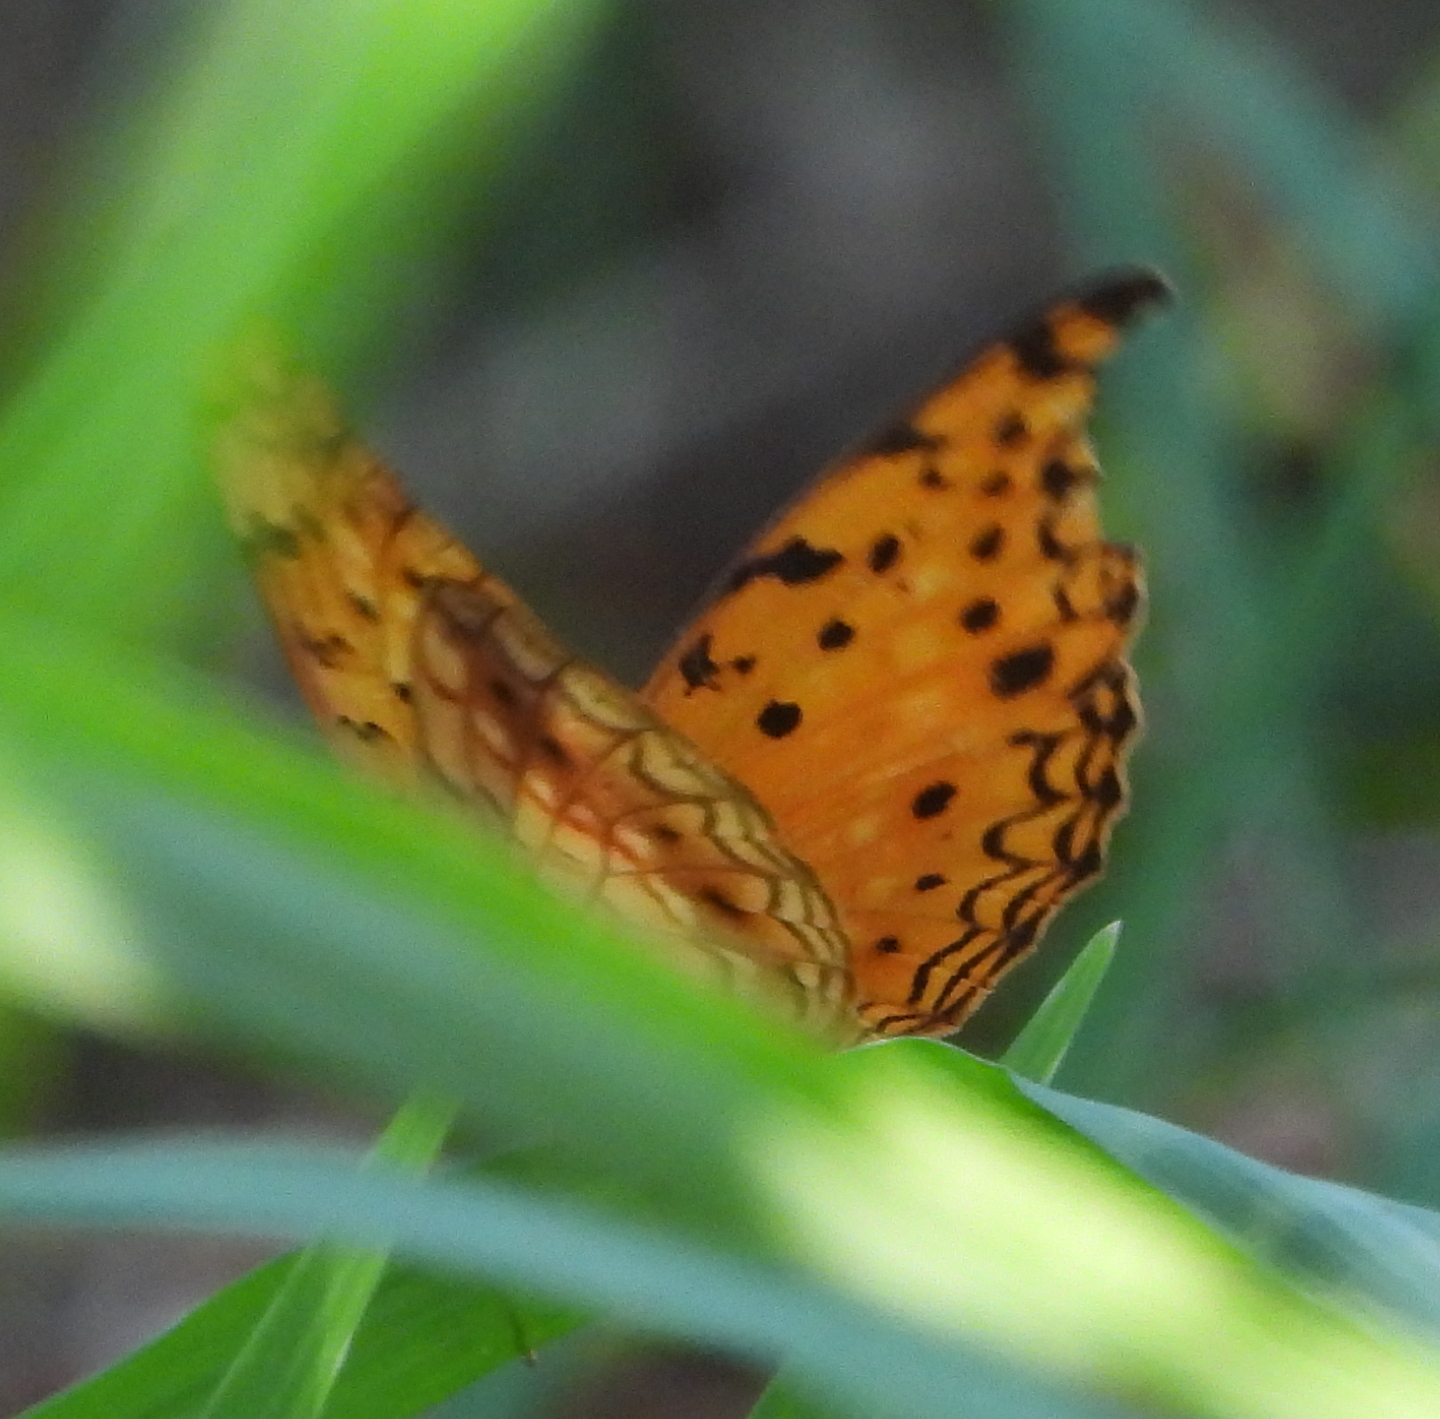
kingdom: Animalia
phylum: Arthropoda
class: Insecta
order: Lepidoptera
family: Nymphalidae
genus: Phalanta
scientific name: Phalanta phalantha
